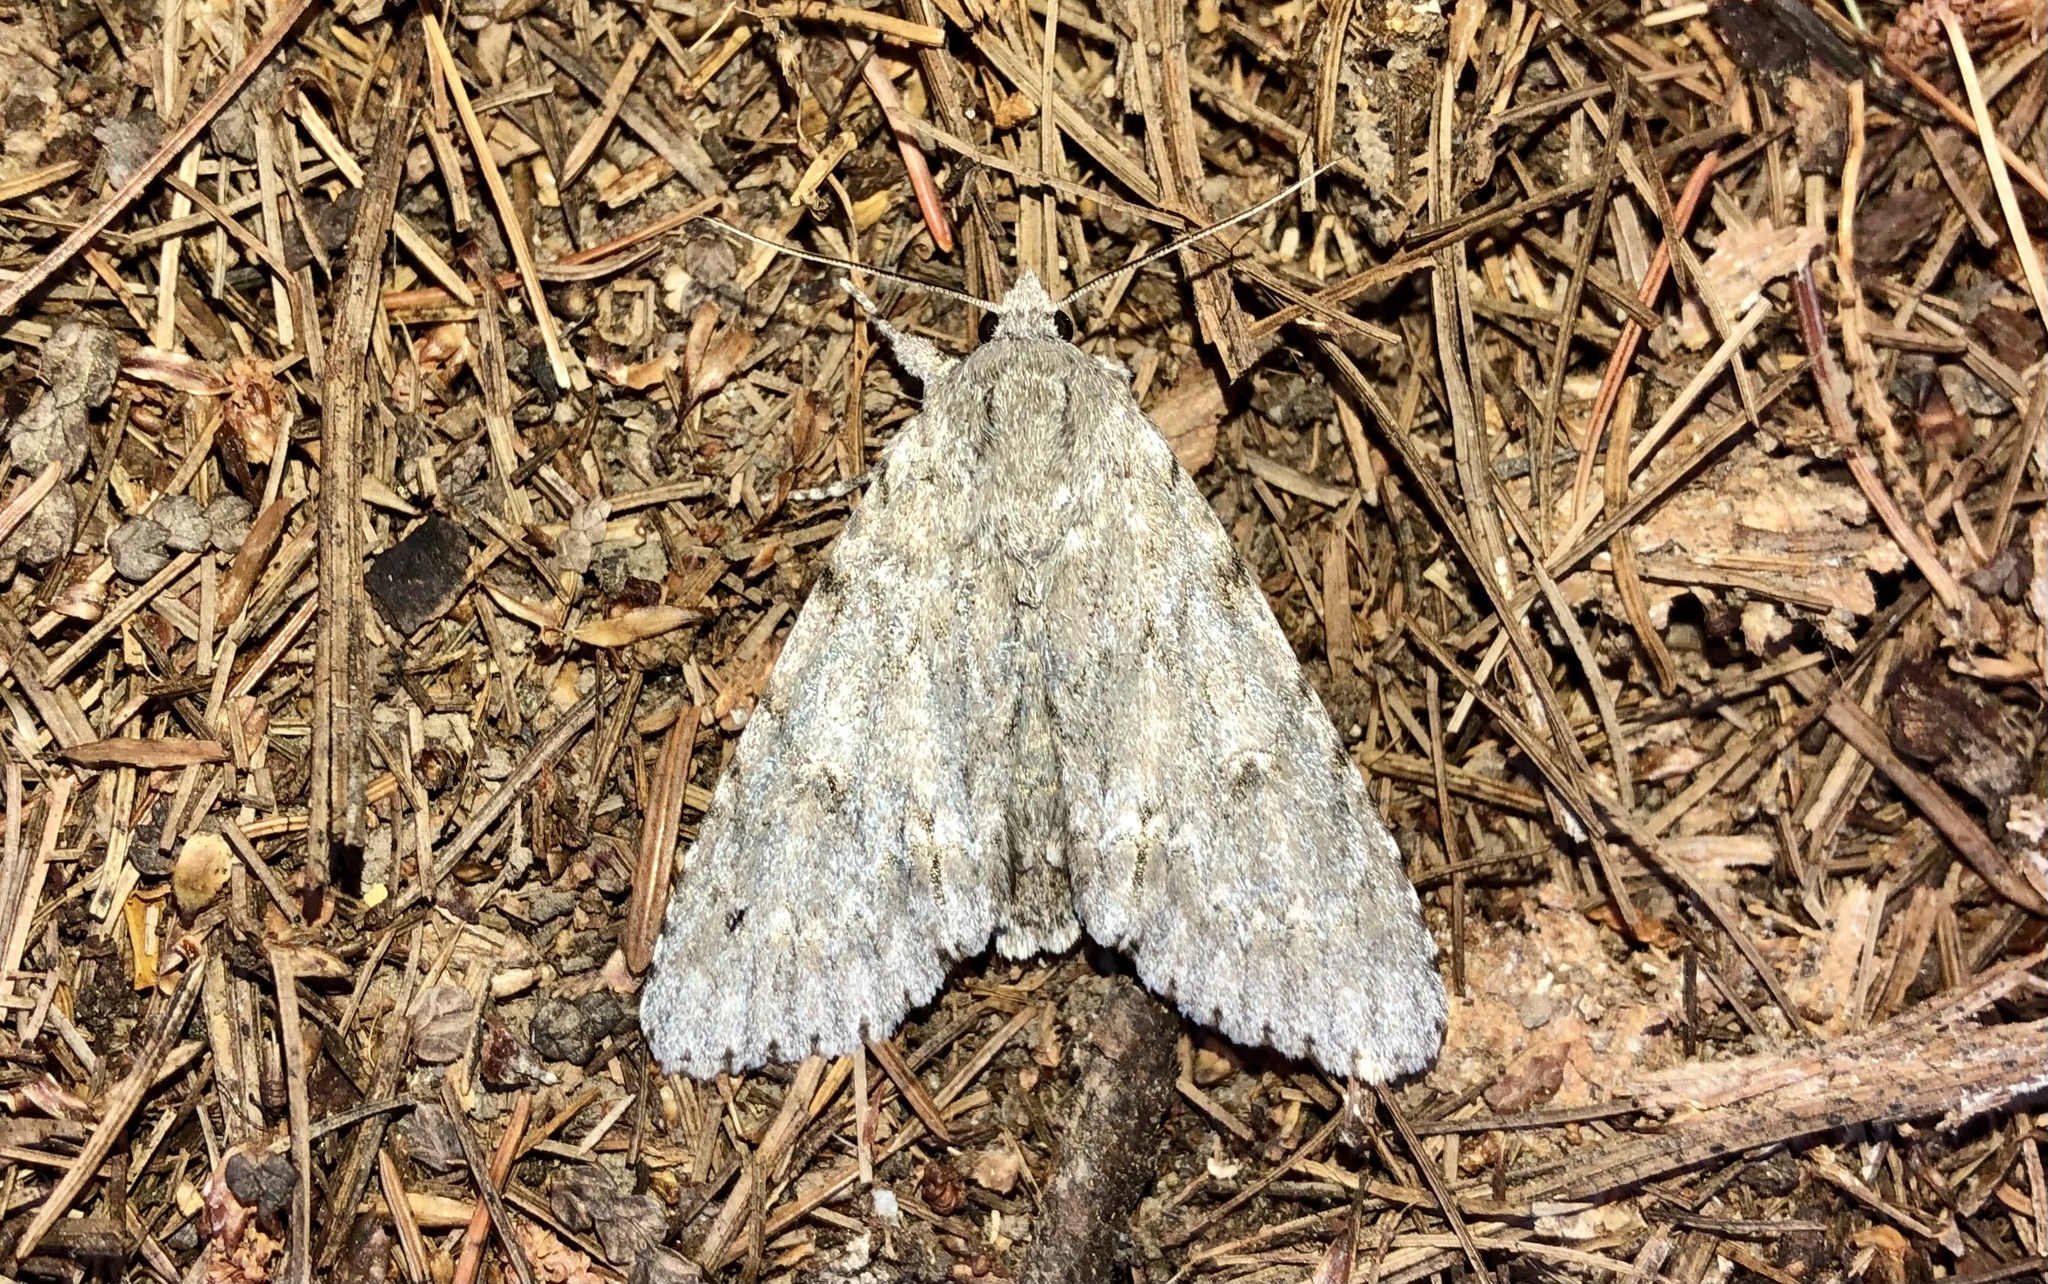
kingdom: Animalia
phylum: Arthropoda
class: Insecta
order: Lepidoptera
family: Noctuidae
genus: Acronicta
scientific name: Acronicta americana
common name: American dagger
